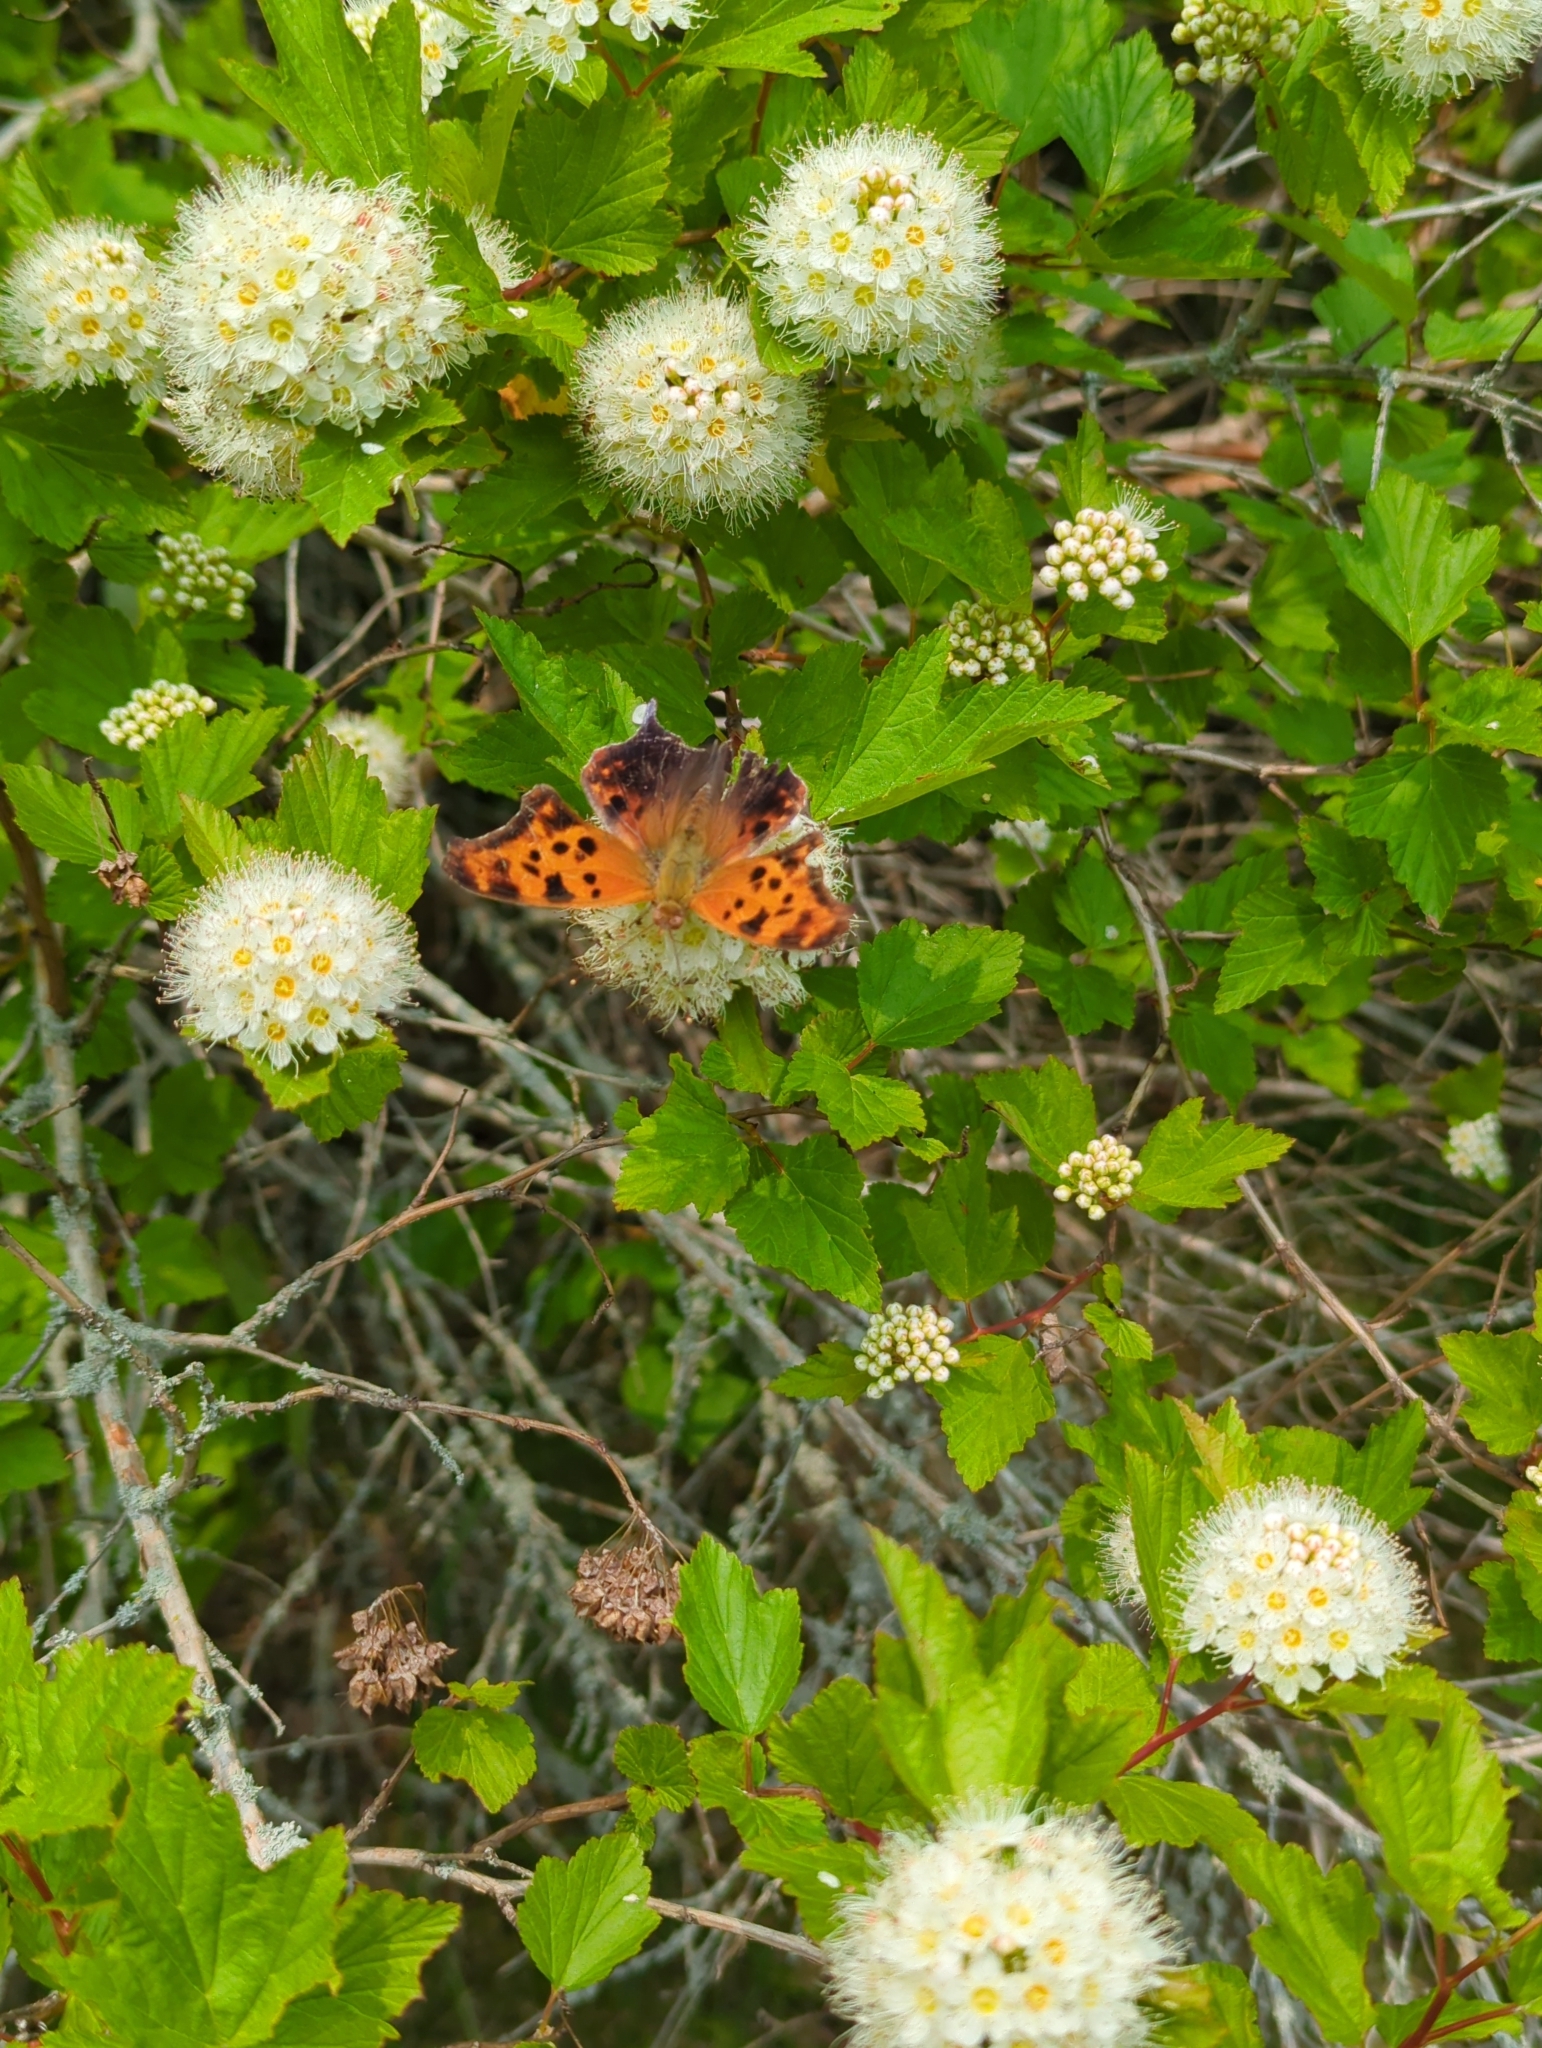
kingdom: Animalia
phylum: Arthropoda
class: Insecta
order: Lepidoptera
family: Nymphalidae
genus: Polygonia
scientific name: Polygonia interrogationis
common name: Question mark
